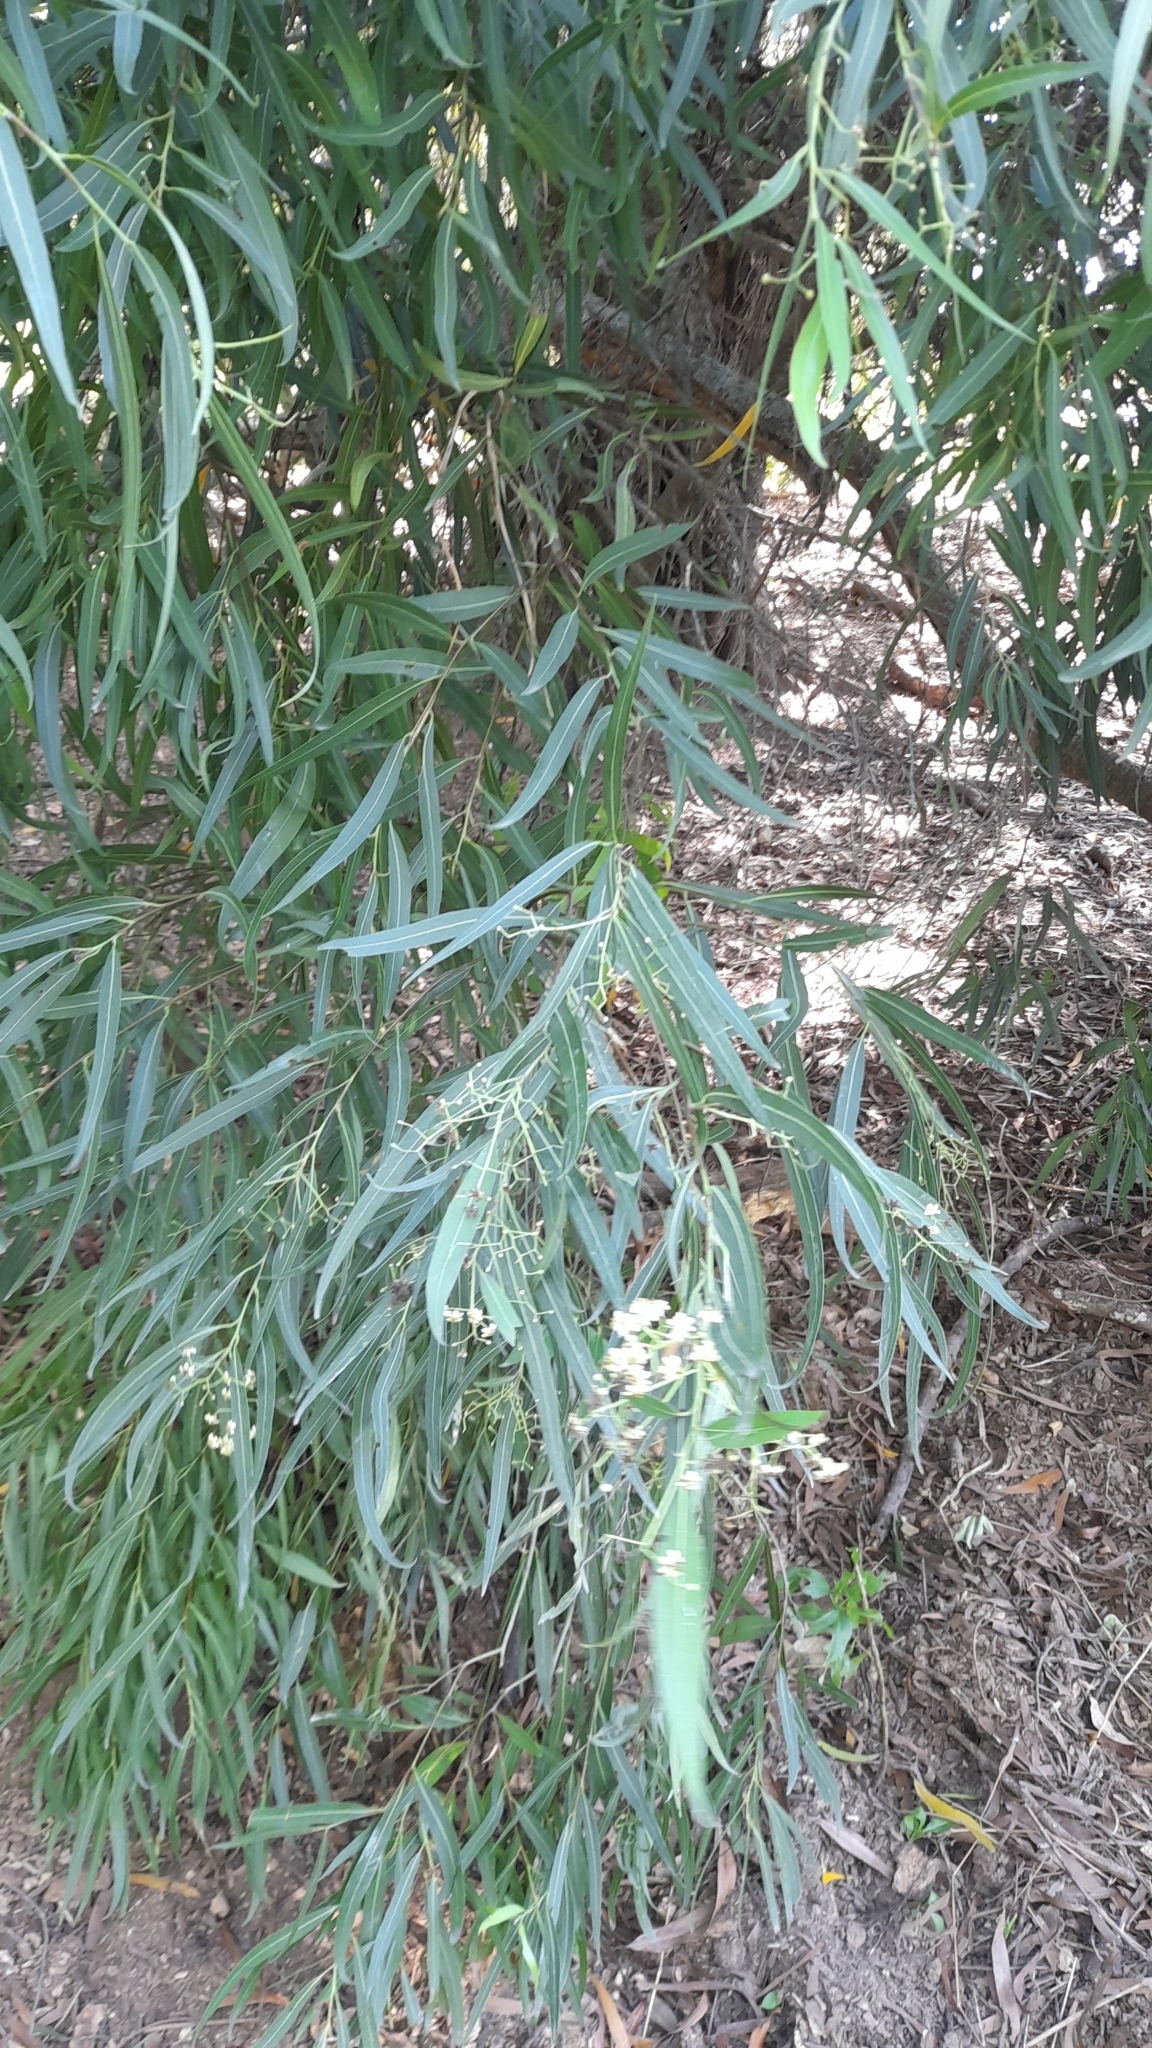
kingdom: Plantae
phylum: Tracheophyta
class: Magnoliopsida
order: Laurales
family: Lauraceae
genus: Nectandra
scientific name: Nectandra angustifolia
